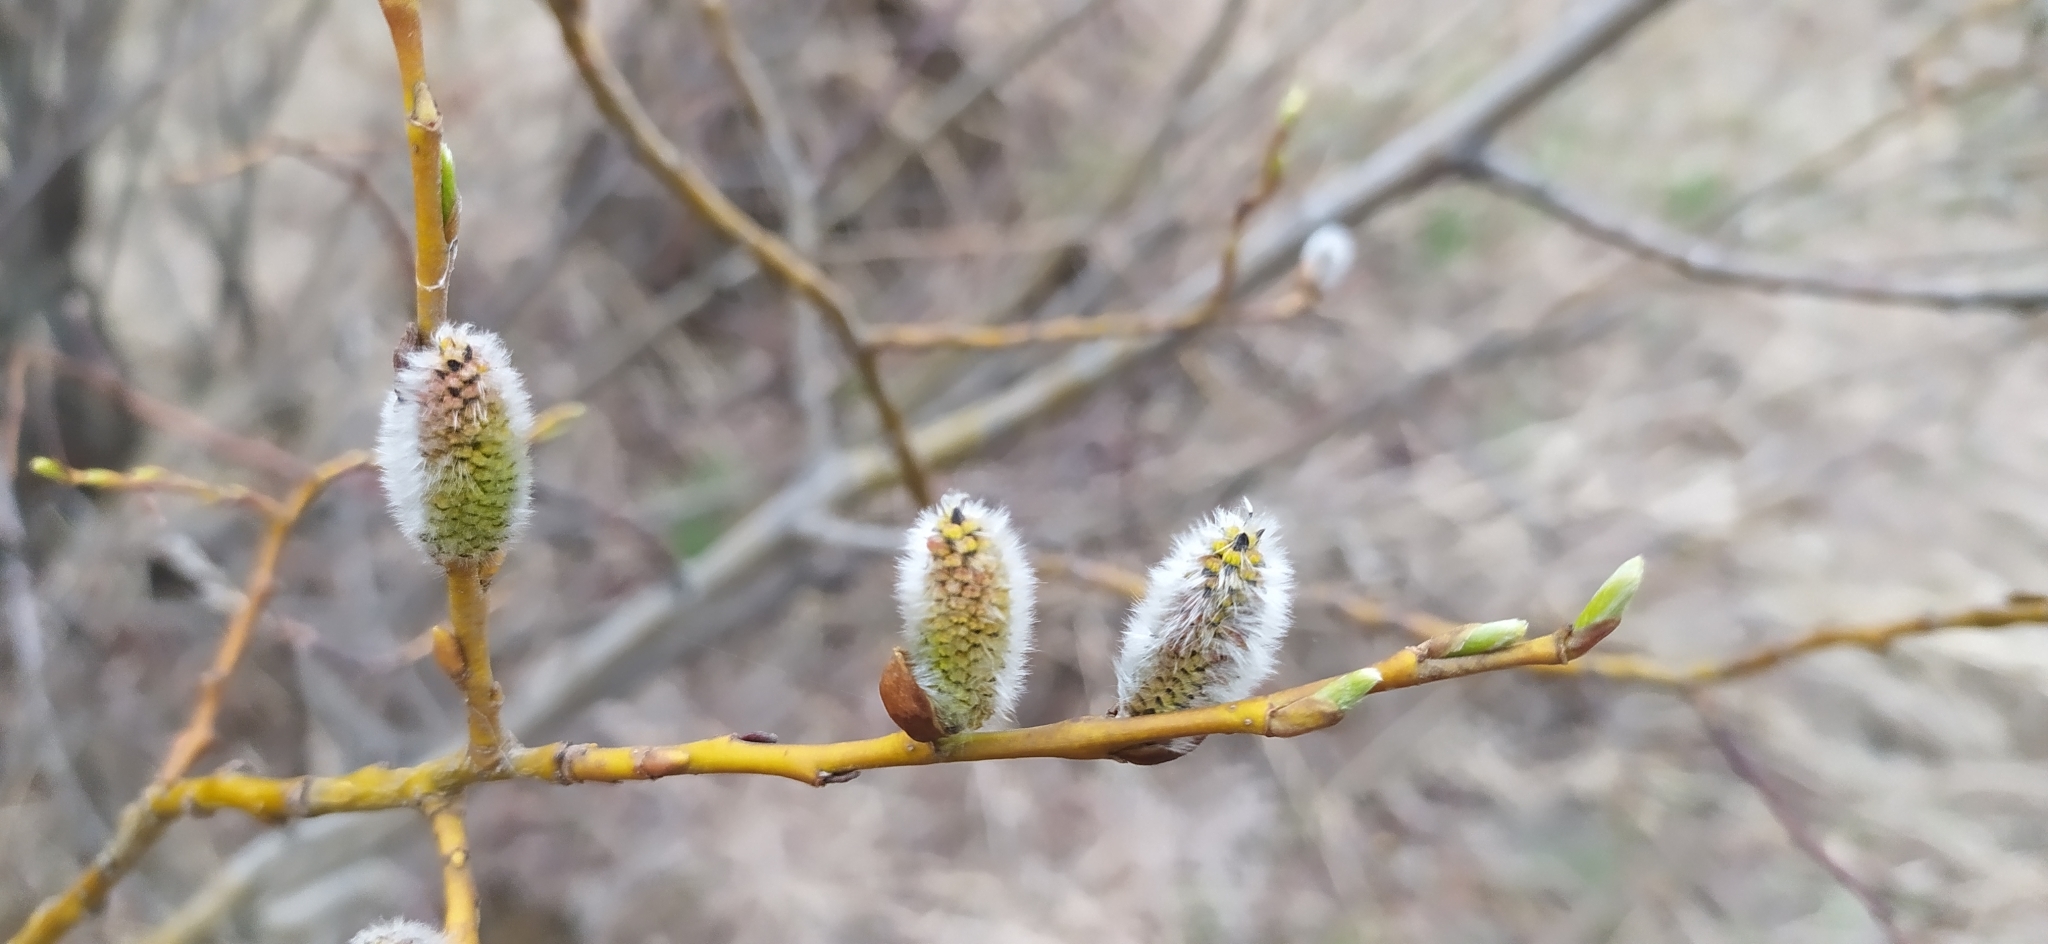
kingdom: Plantae
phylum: Tracheophyta
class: Magnoliopsida
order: Malpighiales
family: Salicaceae
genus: Salix
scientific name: Salix caprea
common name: Goat willow
